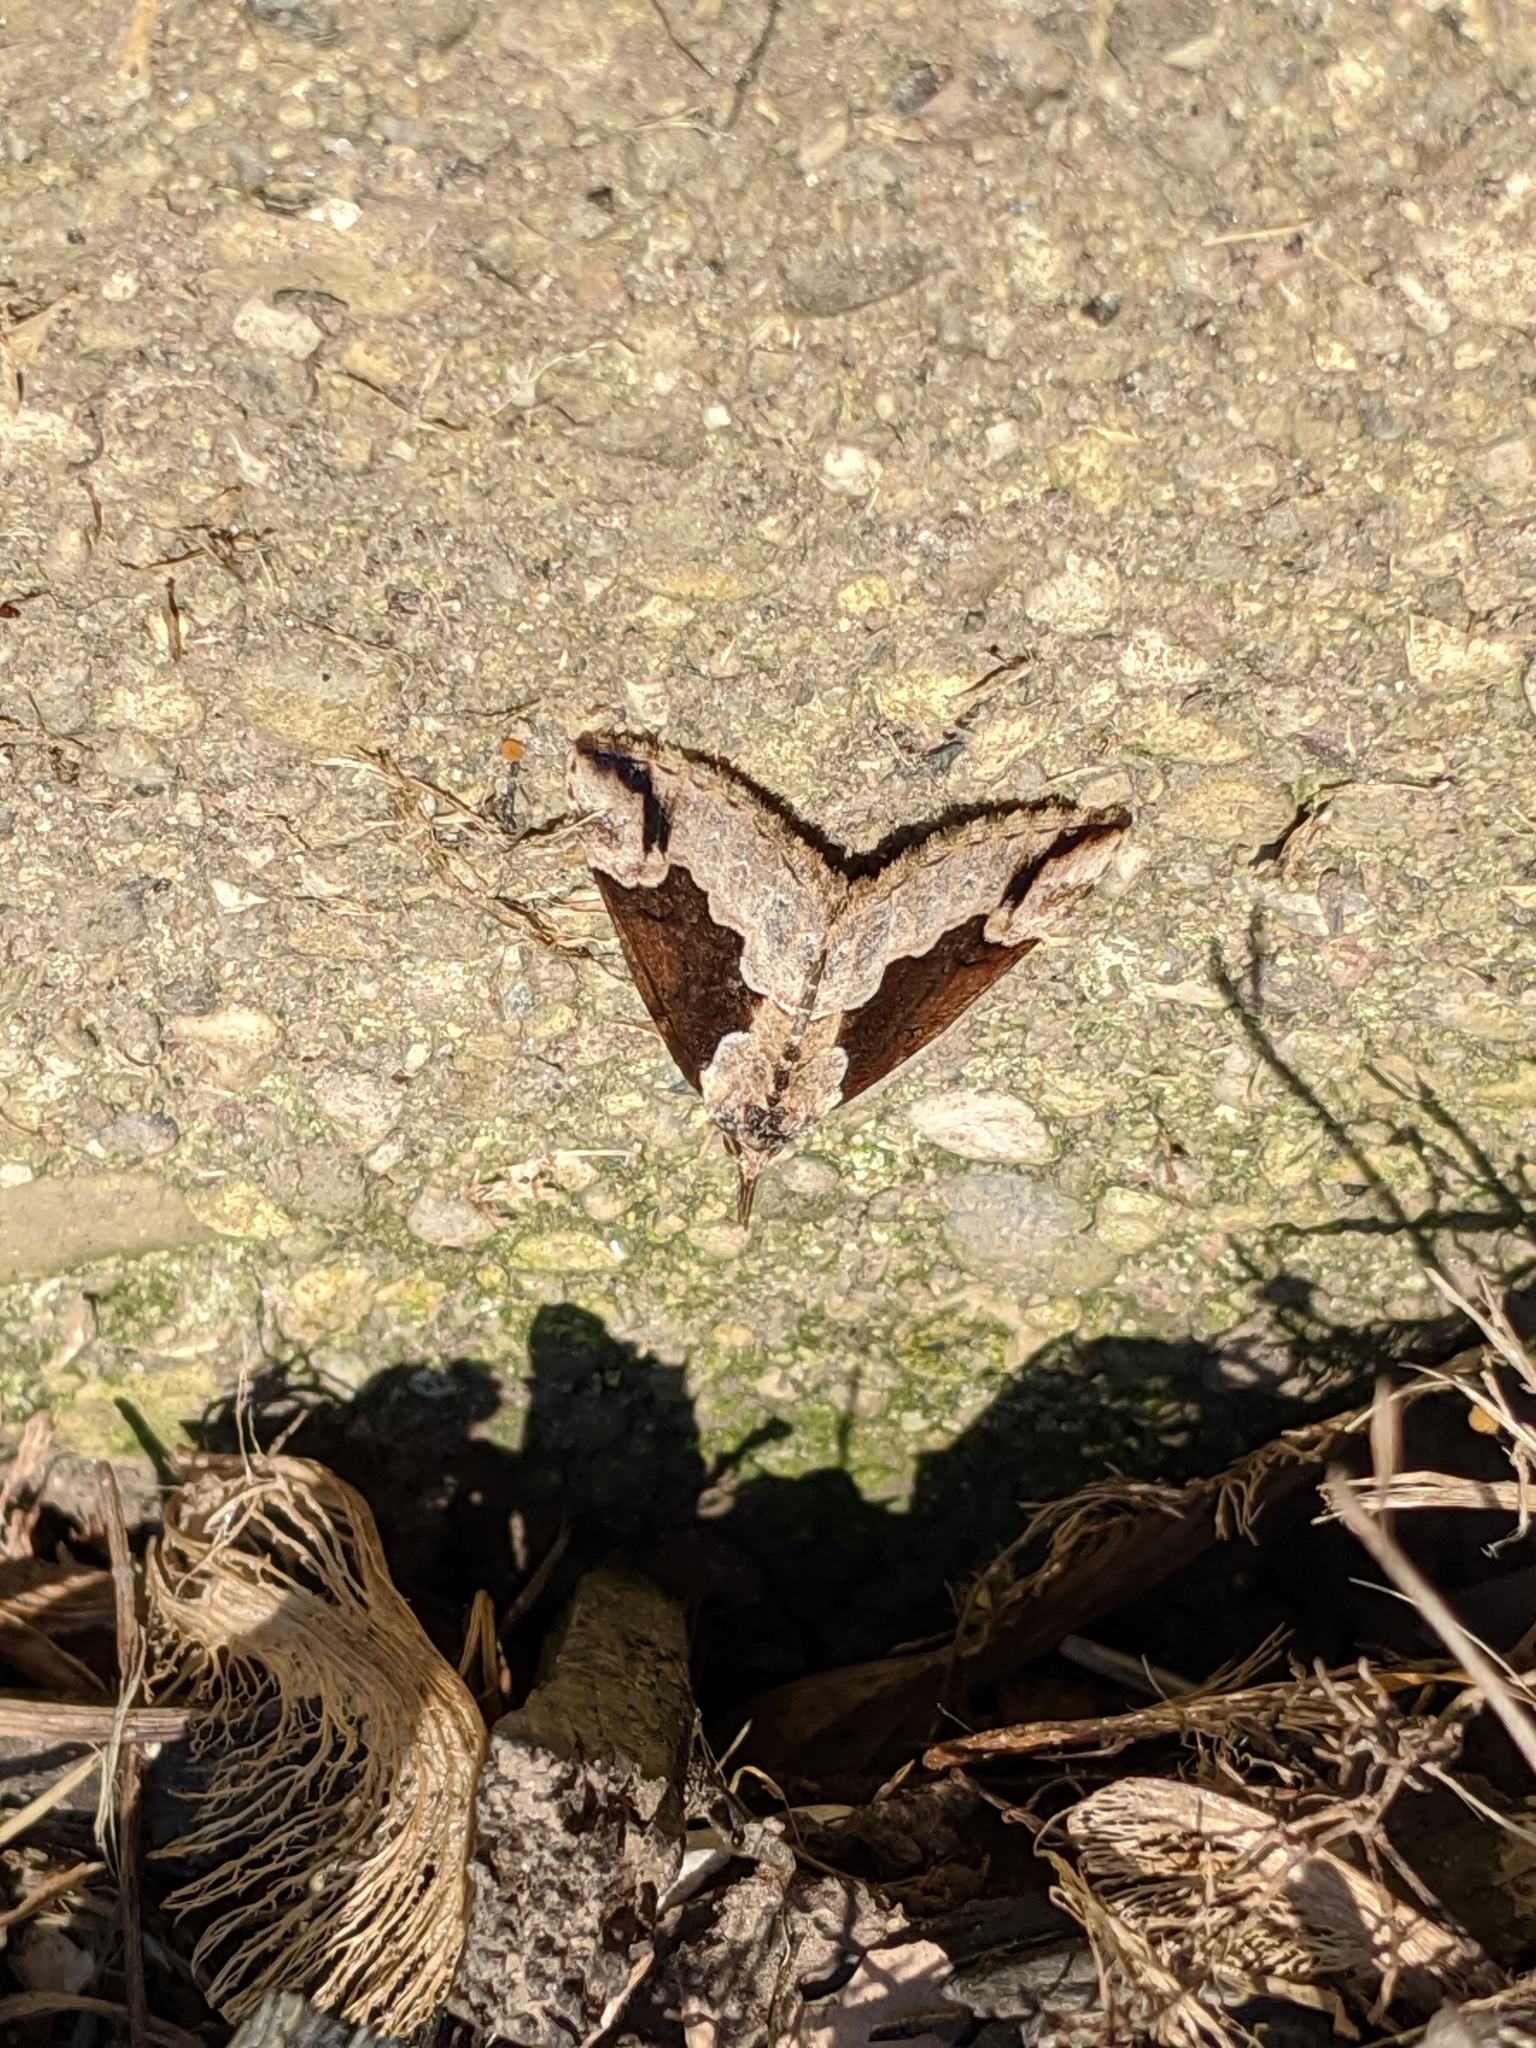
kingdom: Animalia
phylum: Arthropoda
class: Insecta
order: Lepidoptera
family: Erebidae
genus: Hypena
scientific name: Hypena baltimoralis
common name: Baltimore snout
